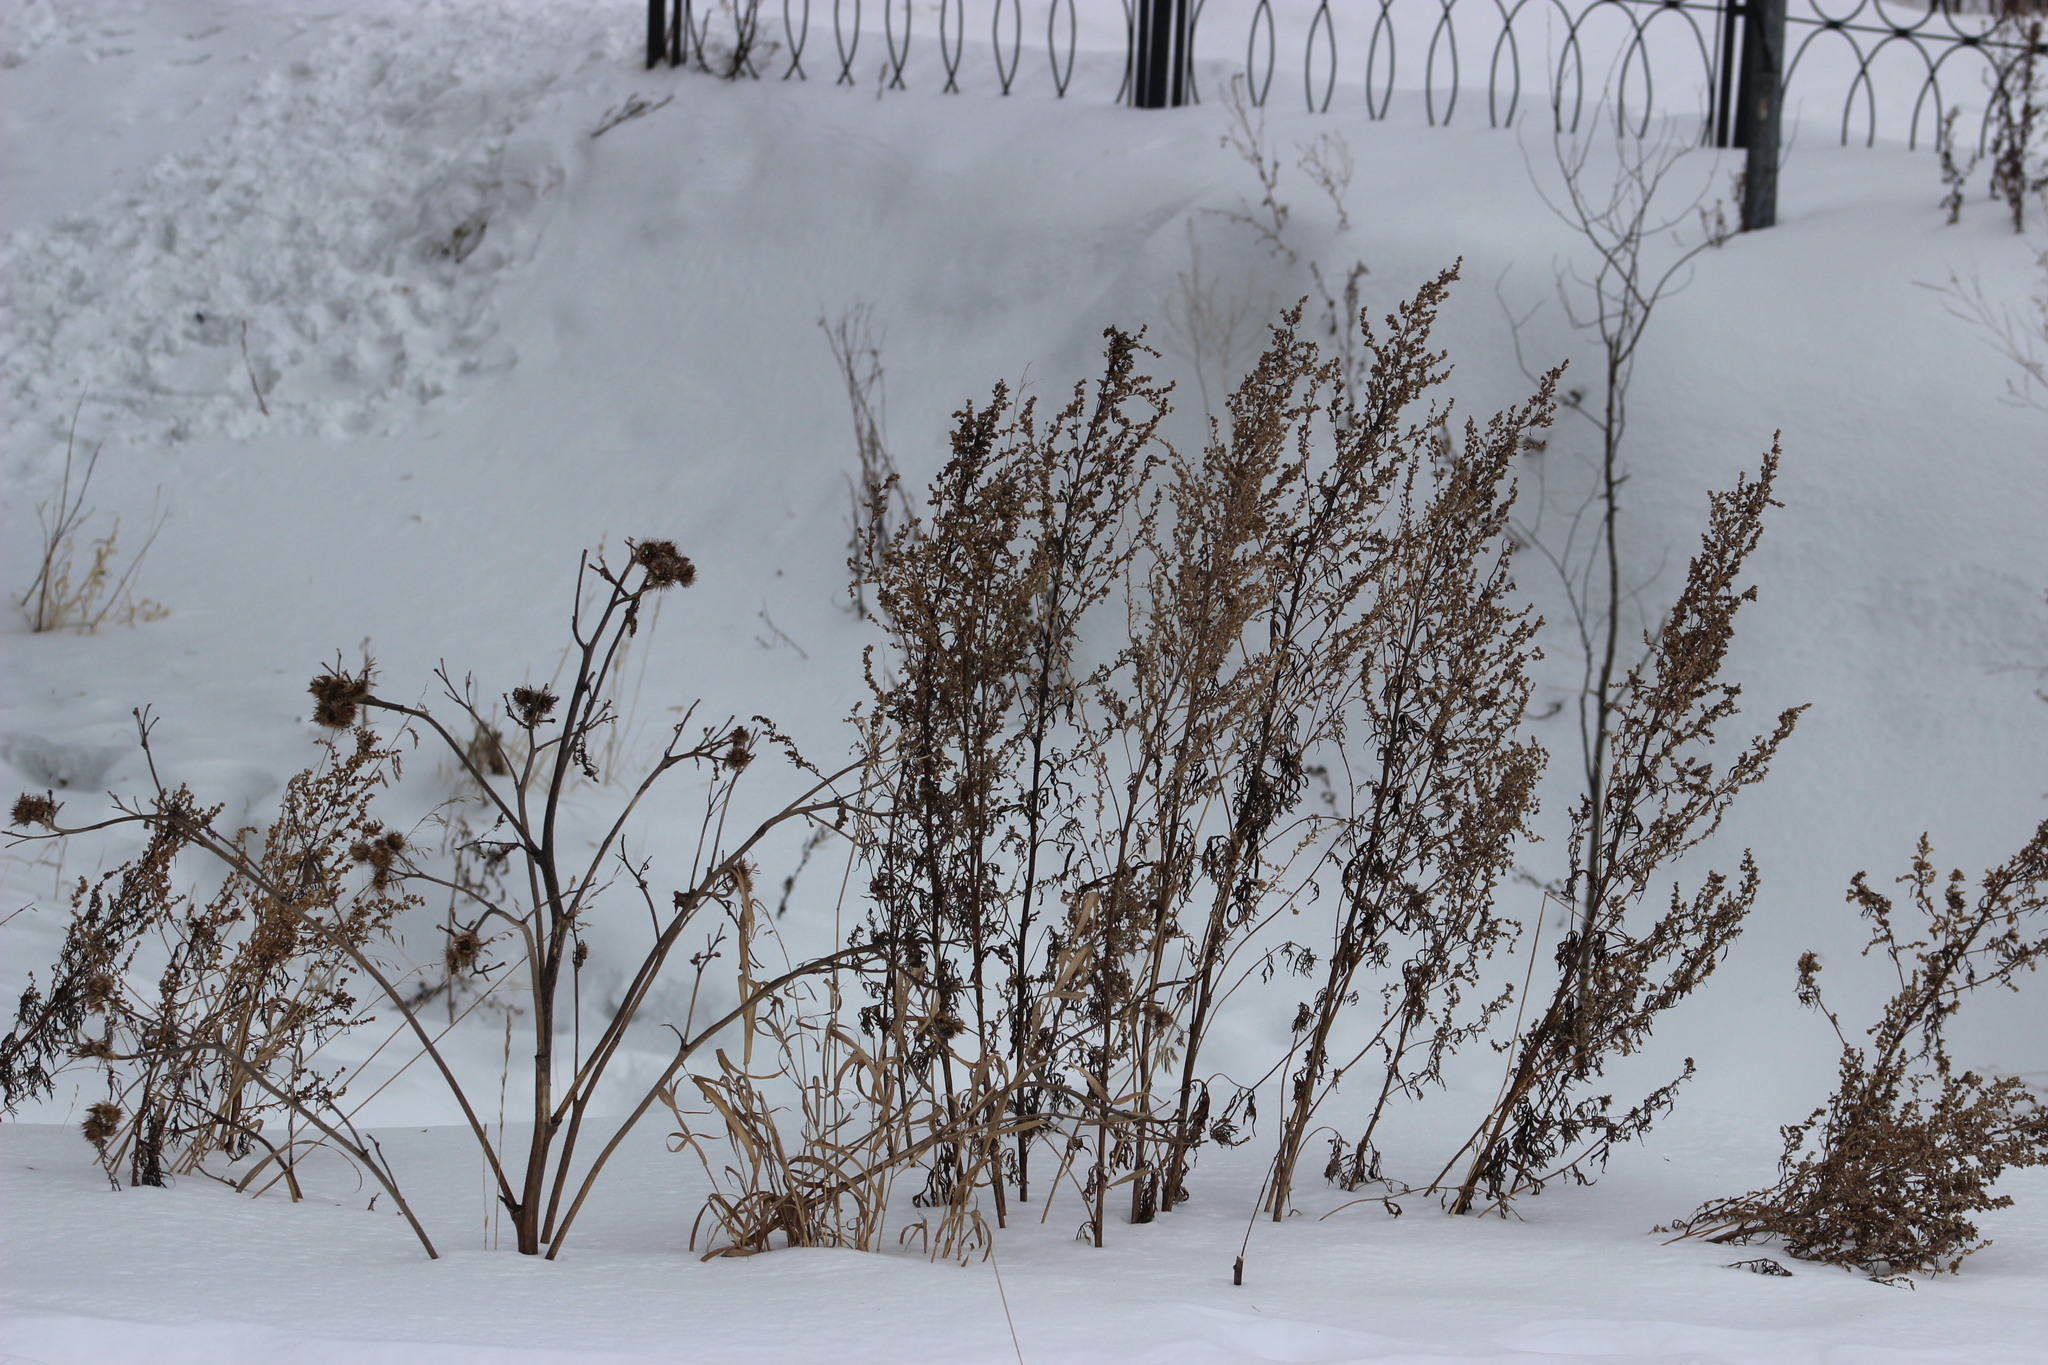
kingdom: Plantae
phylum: Tracheophyta
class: Magnoliopsida
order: Asterales
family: Asteraceae
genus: Arctium
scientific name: Arctium tomentosum
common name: Woolly burdock
